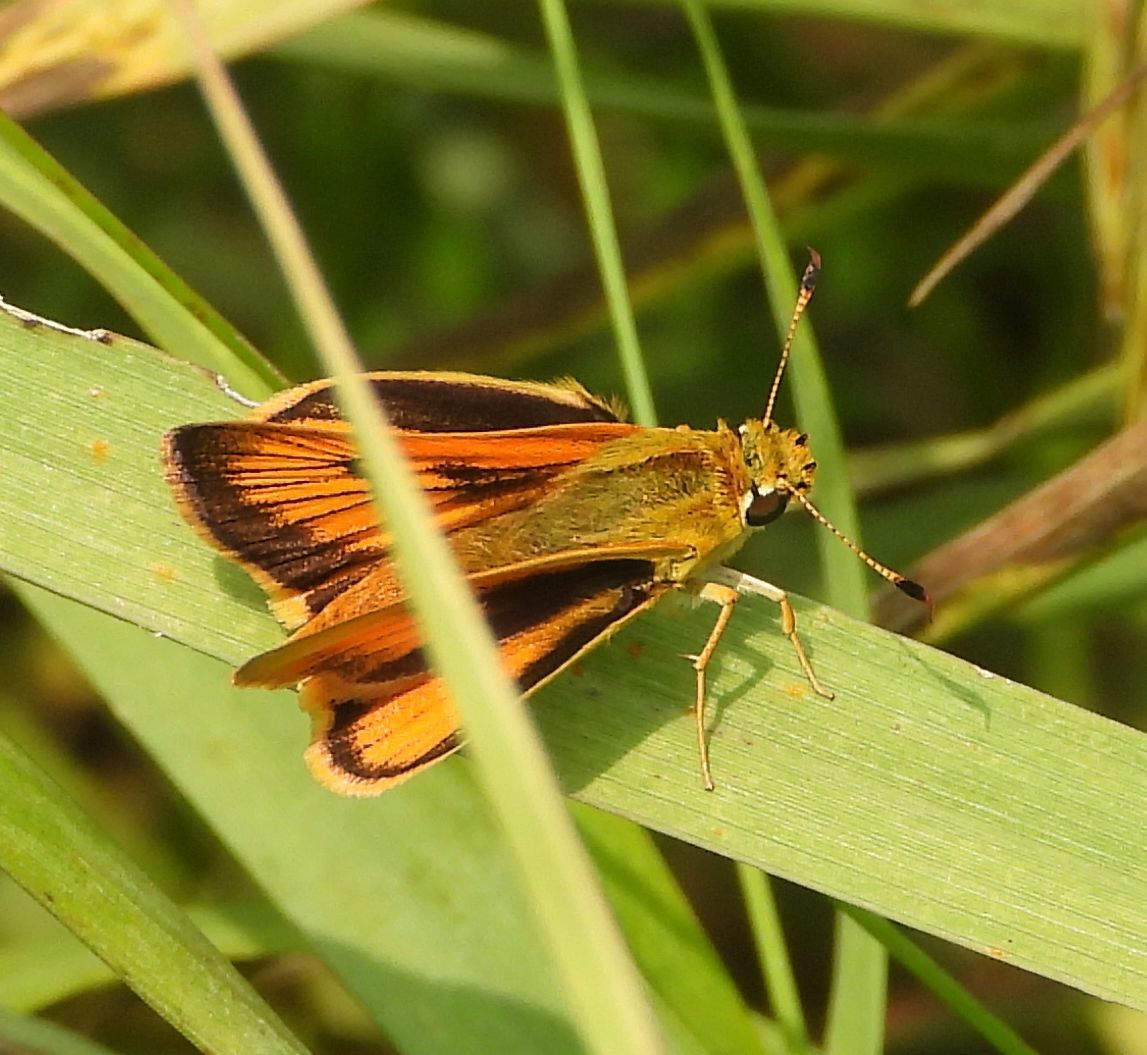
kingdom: Animalia
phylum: Arthropoda
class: Insecta
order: Lepidoptera
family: Hesperiidae
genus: Atrytone
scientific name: Atrytone delaware
